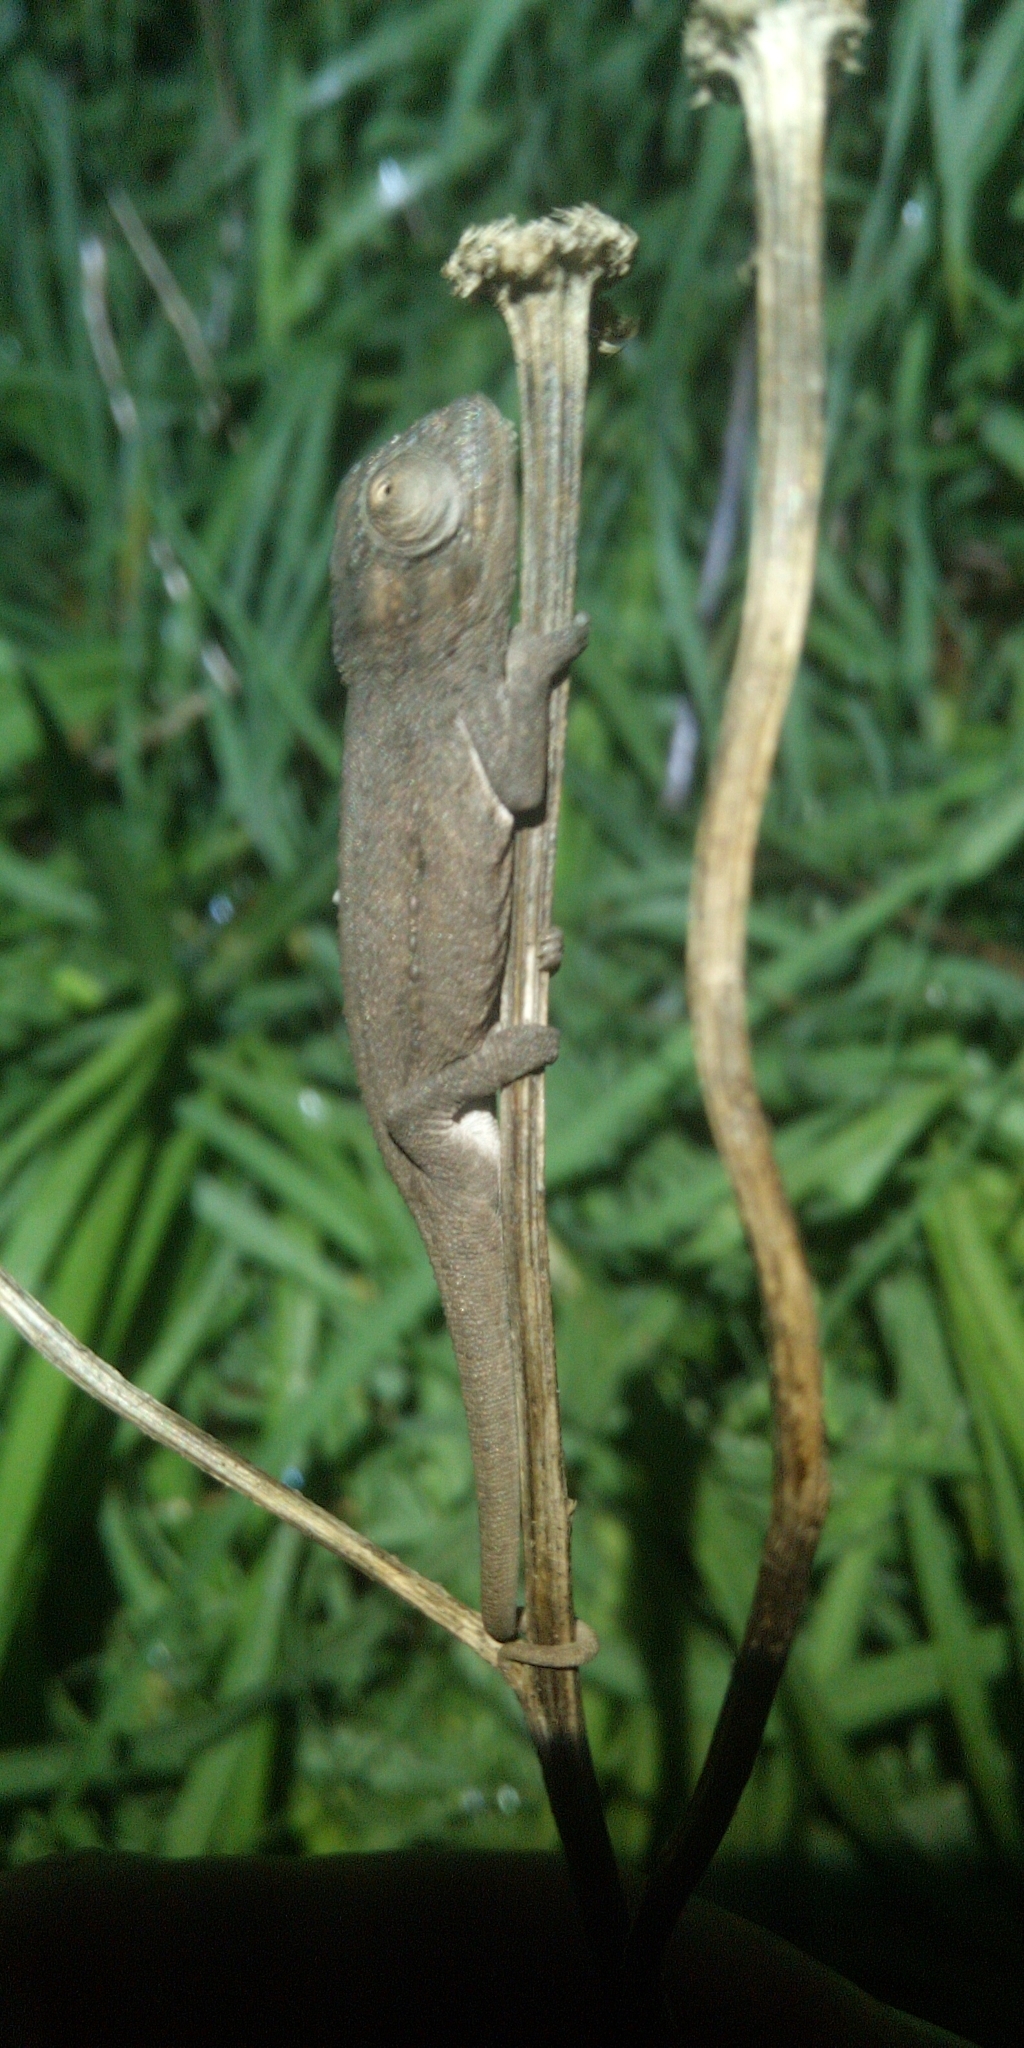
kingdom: Animalia
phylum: Chordata
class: Squamata
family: Chamaeleonidae
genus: Bradypodion
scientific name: Bradypodion pumilum
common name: Cape dwarf chameleon
